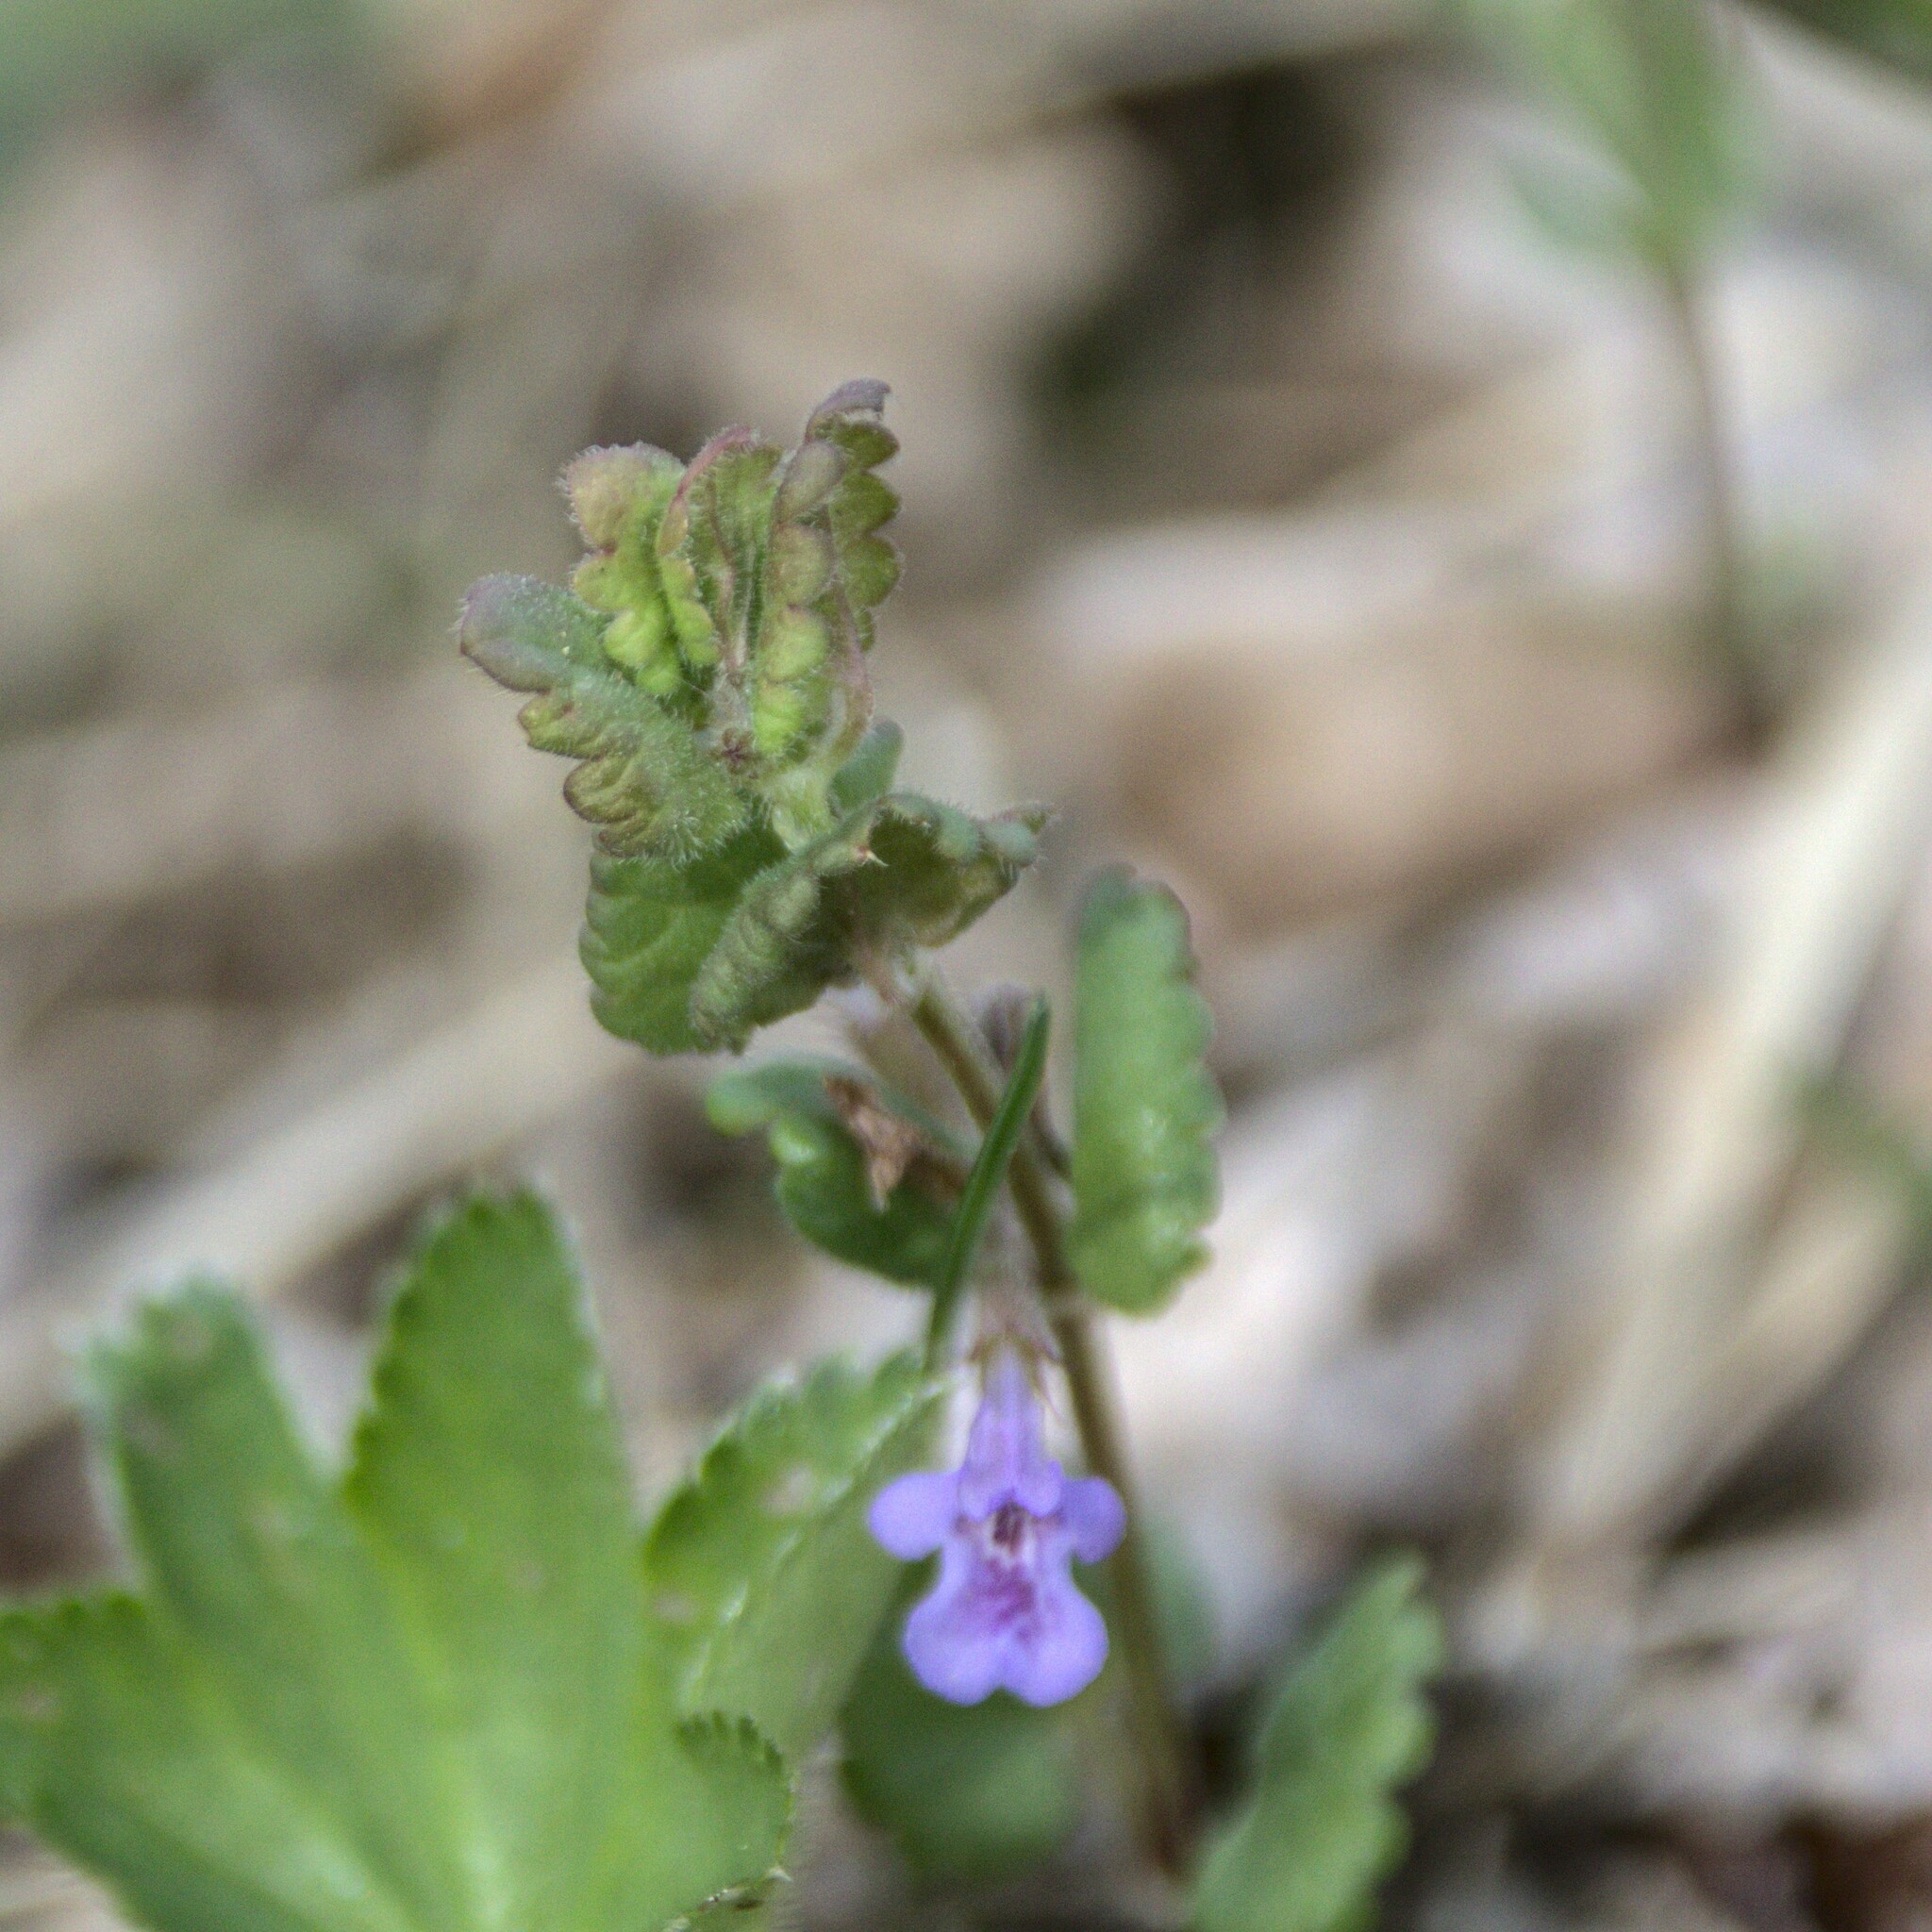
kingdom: Plantae
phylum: Tracheophyta
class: Magnoliopsida
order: Lamiales
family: Lamiaceae
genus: Glechoma
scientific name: Glechoma hederacea
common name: Ground ivy
